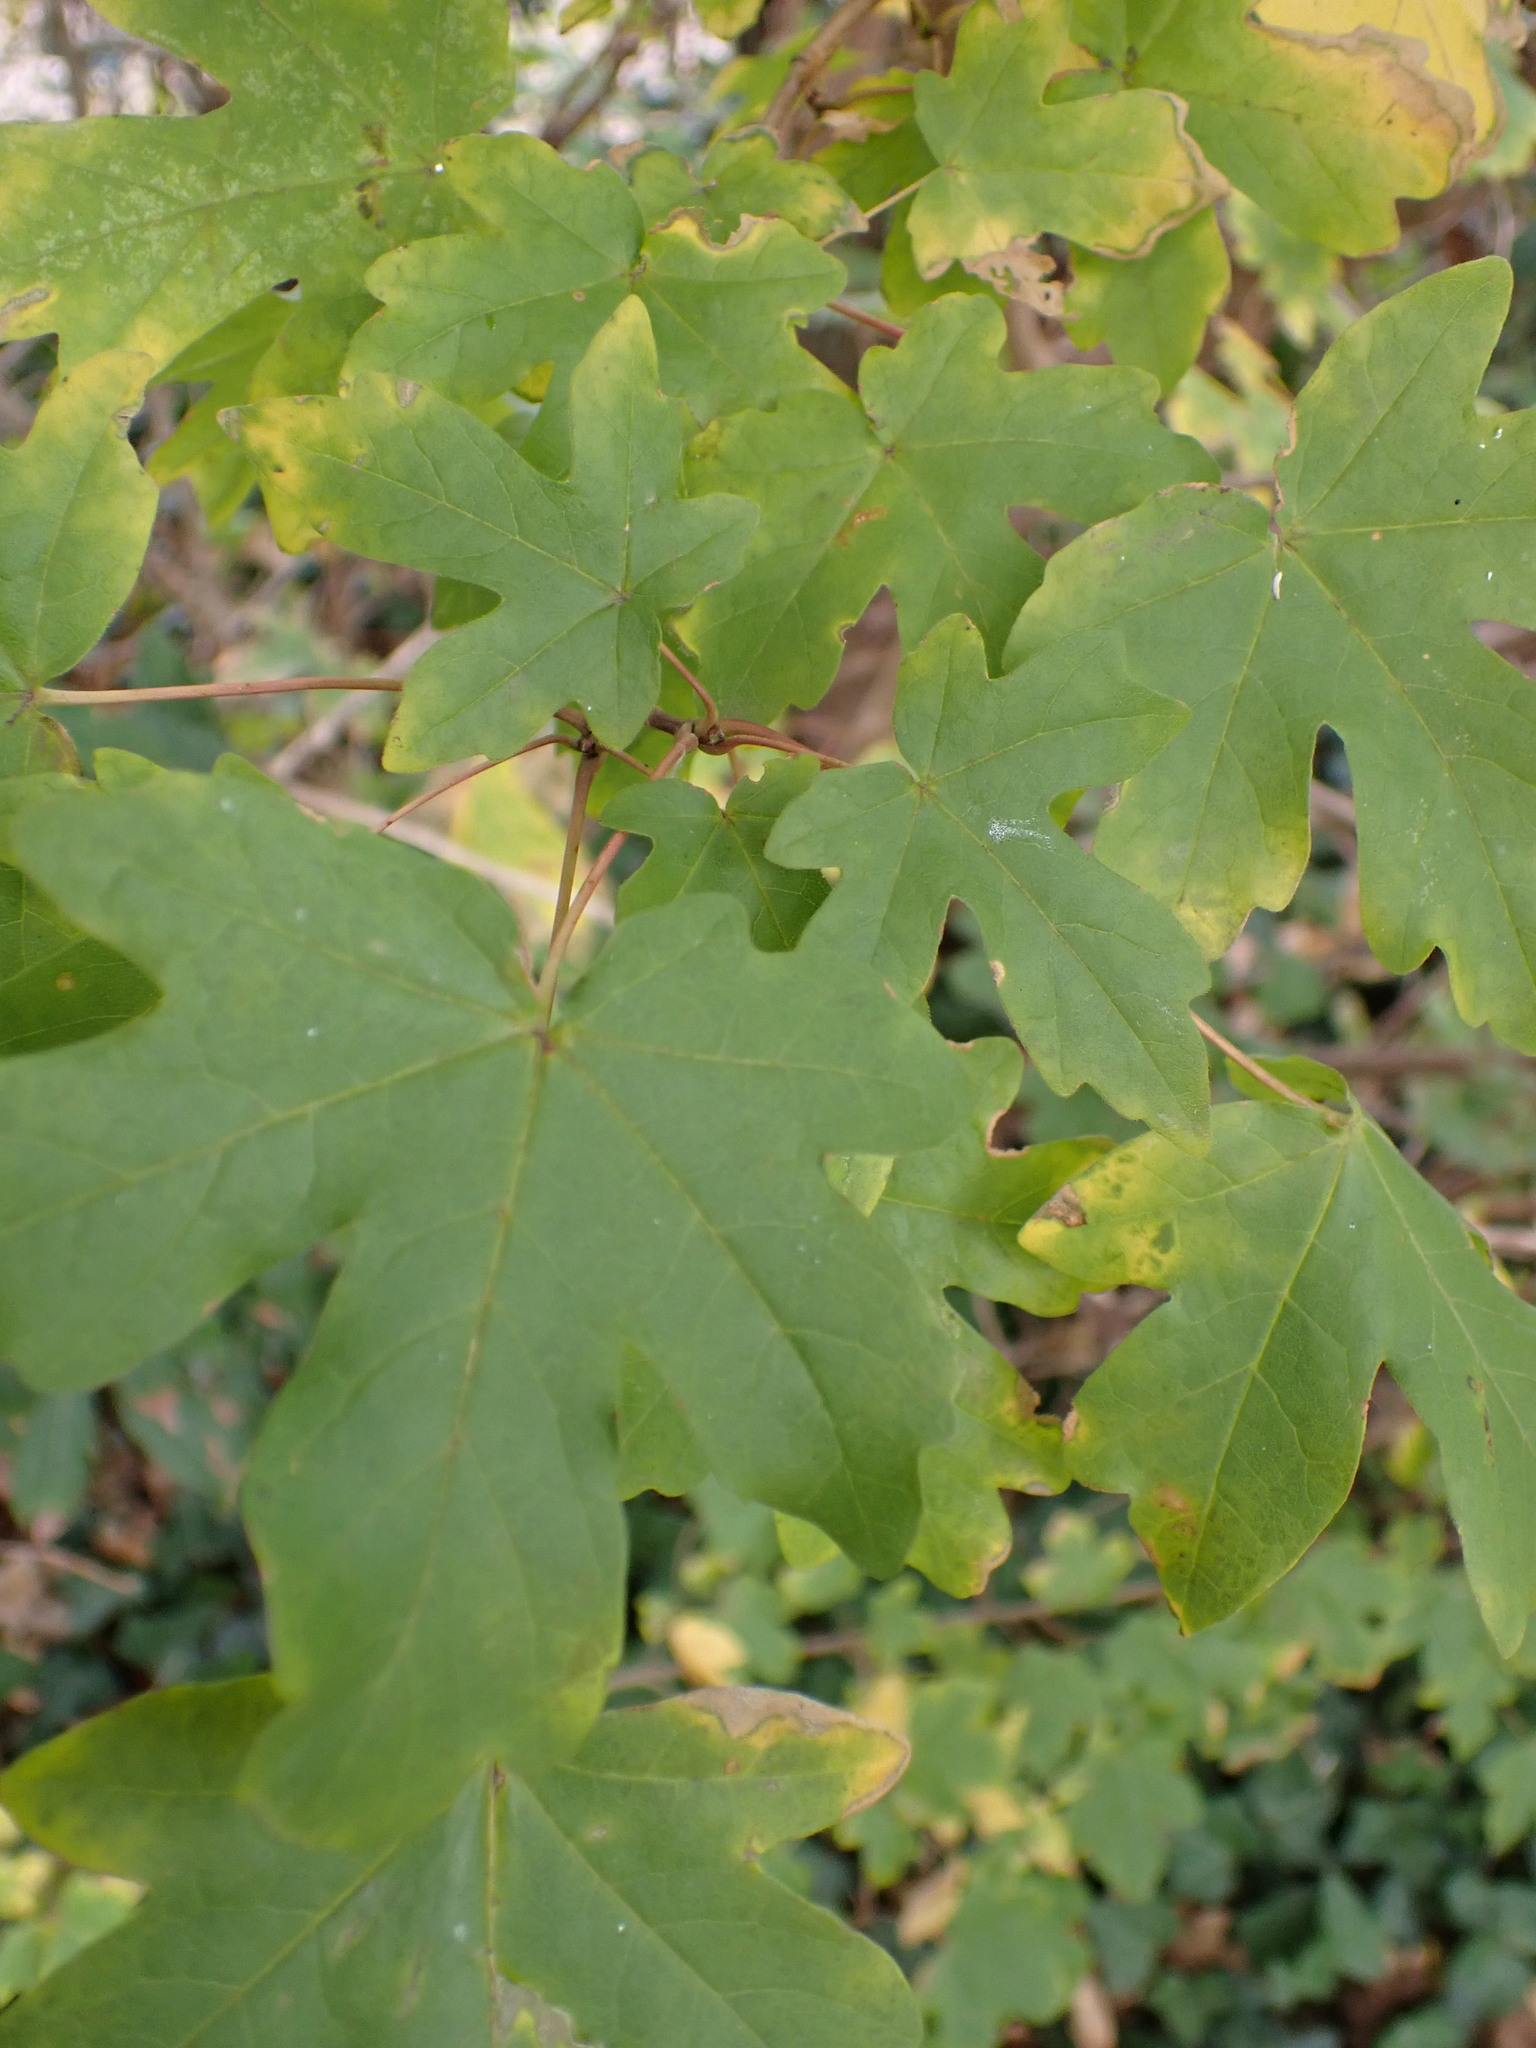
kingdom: Plantae
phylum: Tracheophyta
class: Magnoliopsida
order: Sapindales
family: Sapindaceae
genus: Acer
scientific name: Acer campestre
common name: Field maple
